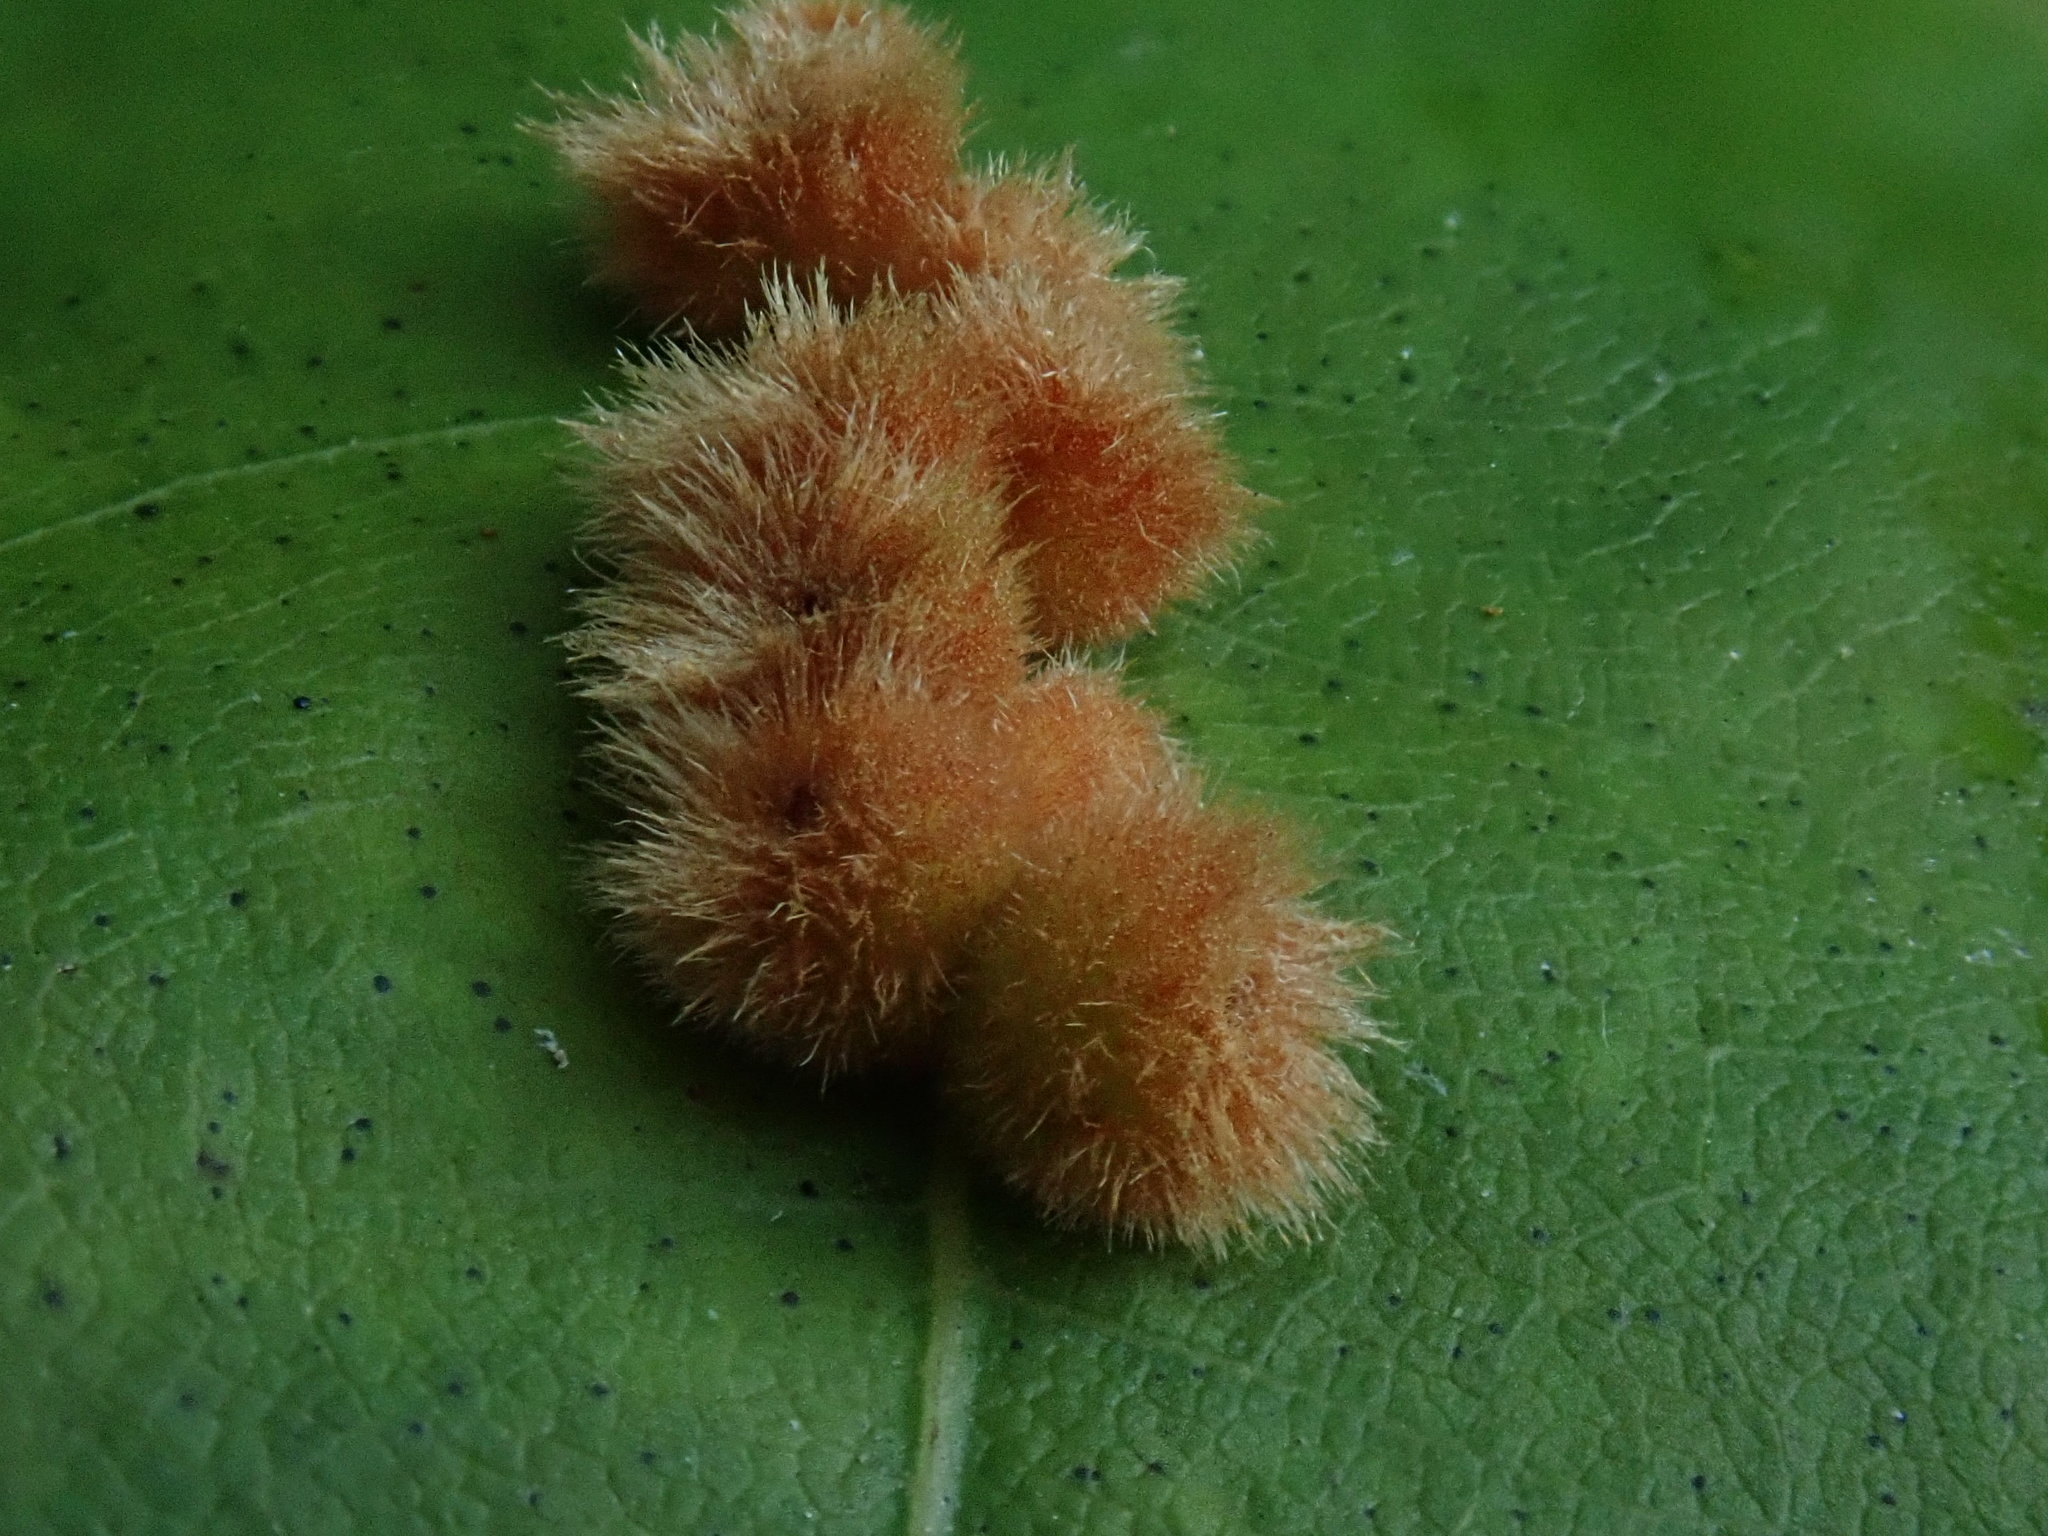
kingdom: Animalia
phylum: Arthropoda
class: Insecta
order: Hymenoptera
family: Cynipidae
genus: Callirhytis
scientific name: Callirhytis
